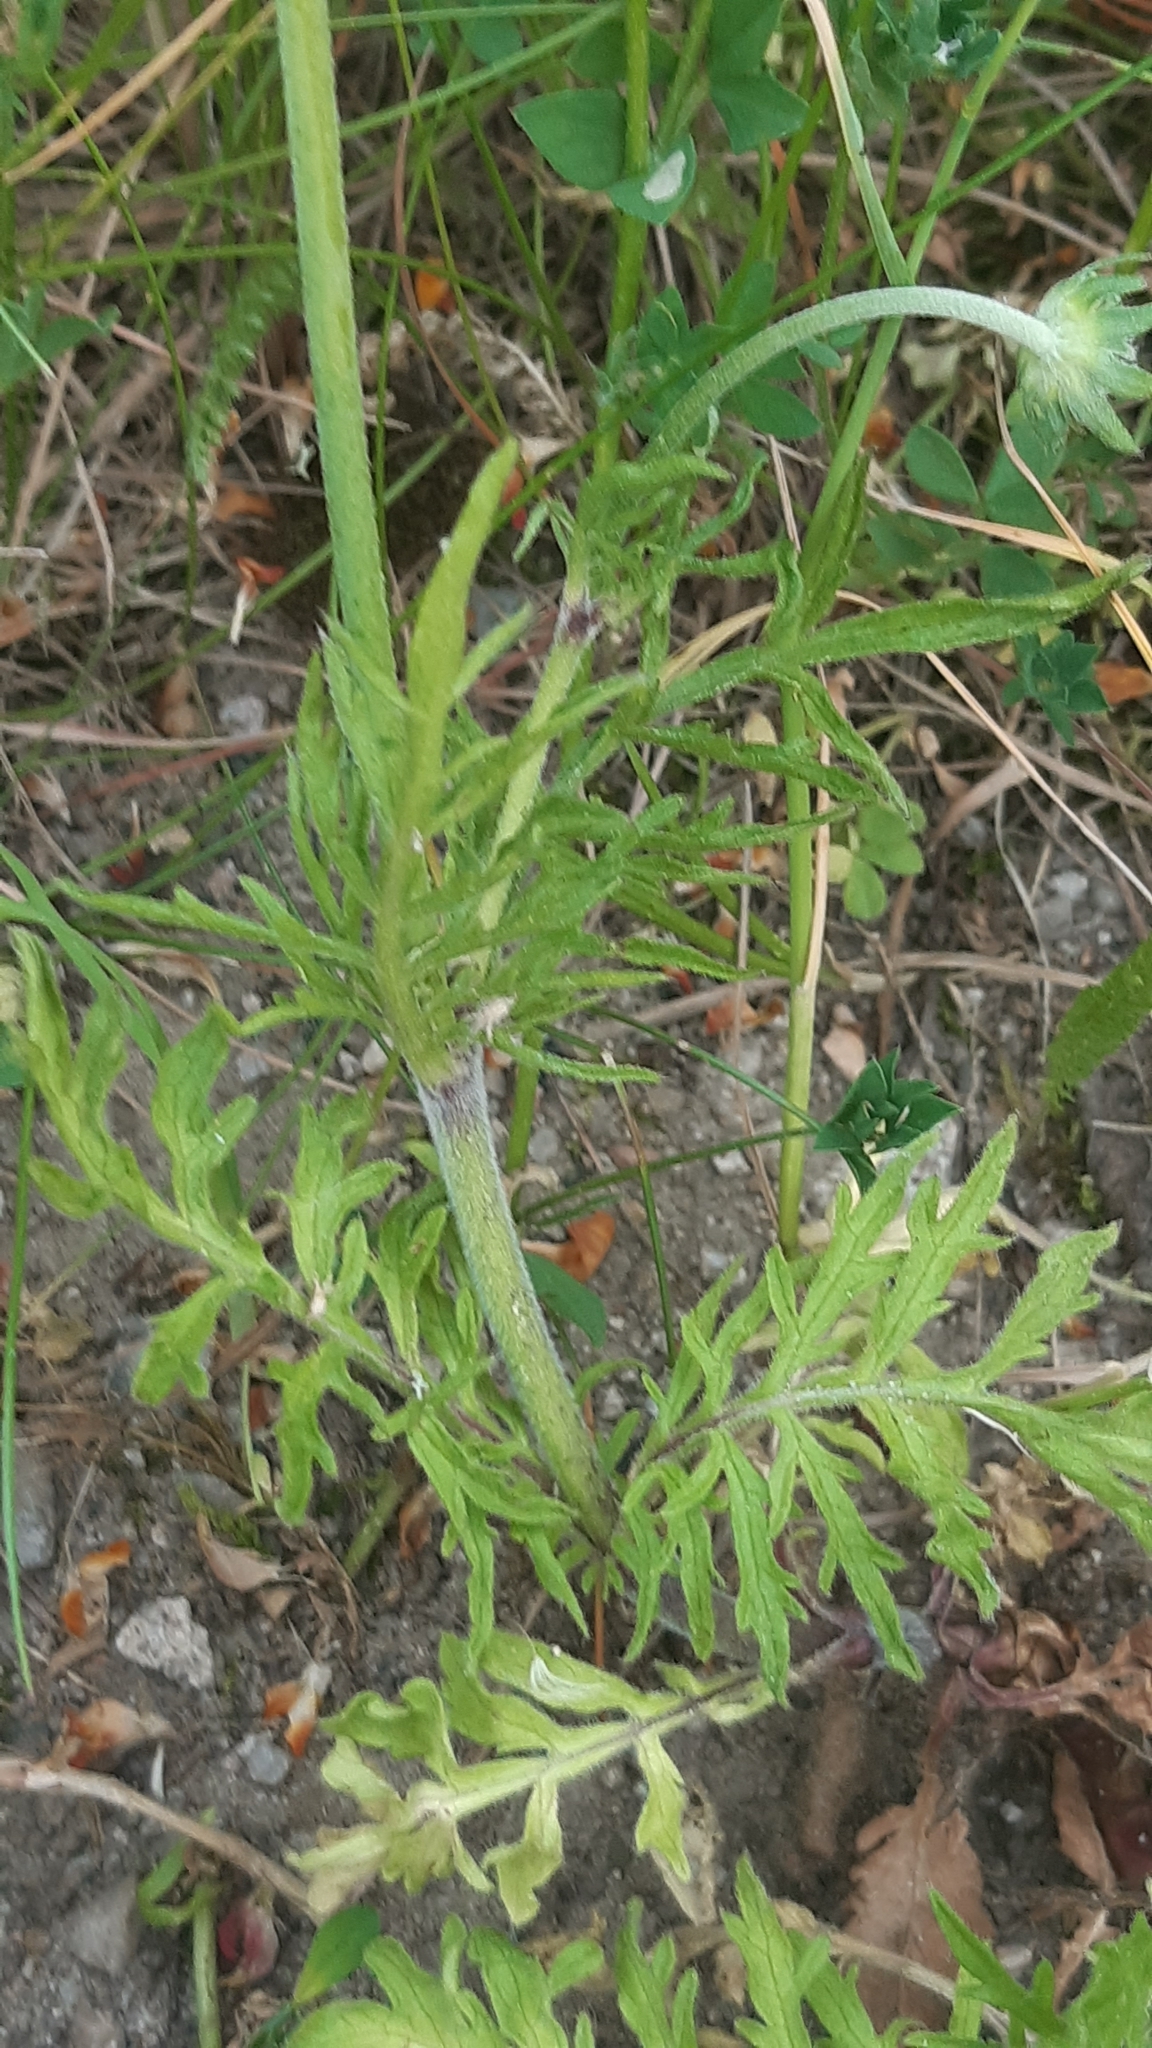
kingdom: Plantae
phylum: Tracheophyta
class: Magnoliopsida
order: Dipsacales
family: Caprifoliaceae
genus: Knautia
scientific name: Knautia arvensis
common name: Field scabiosa
